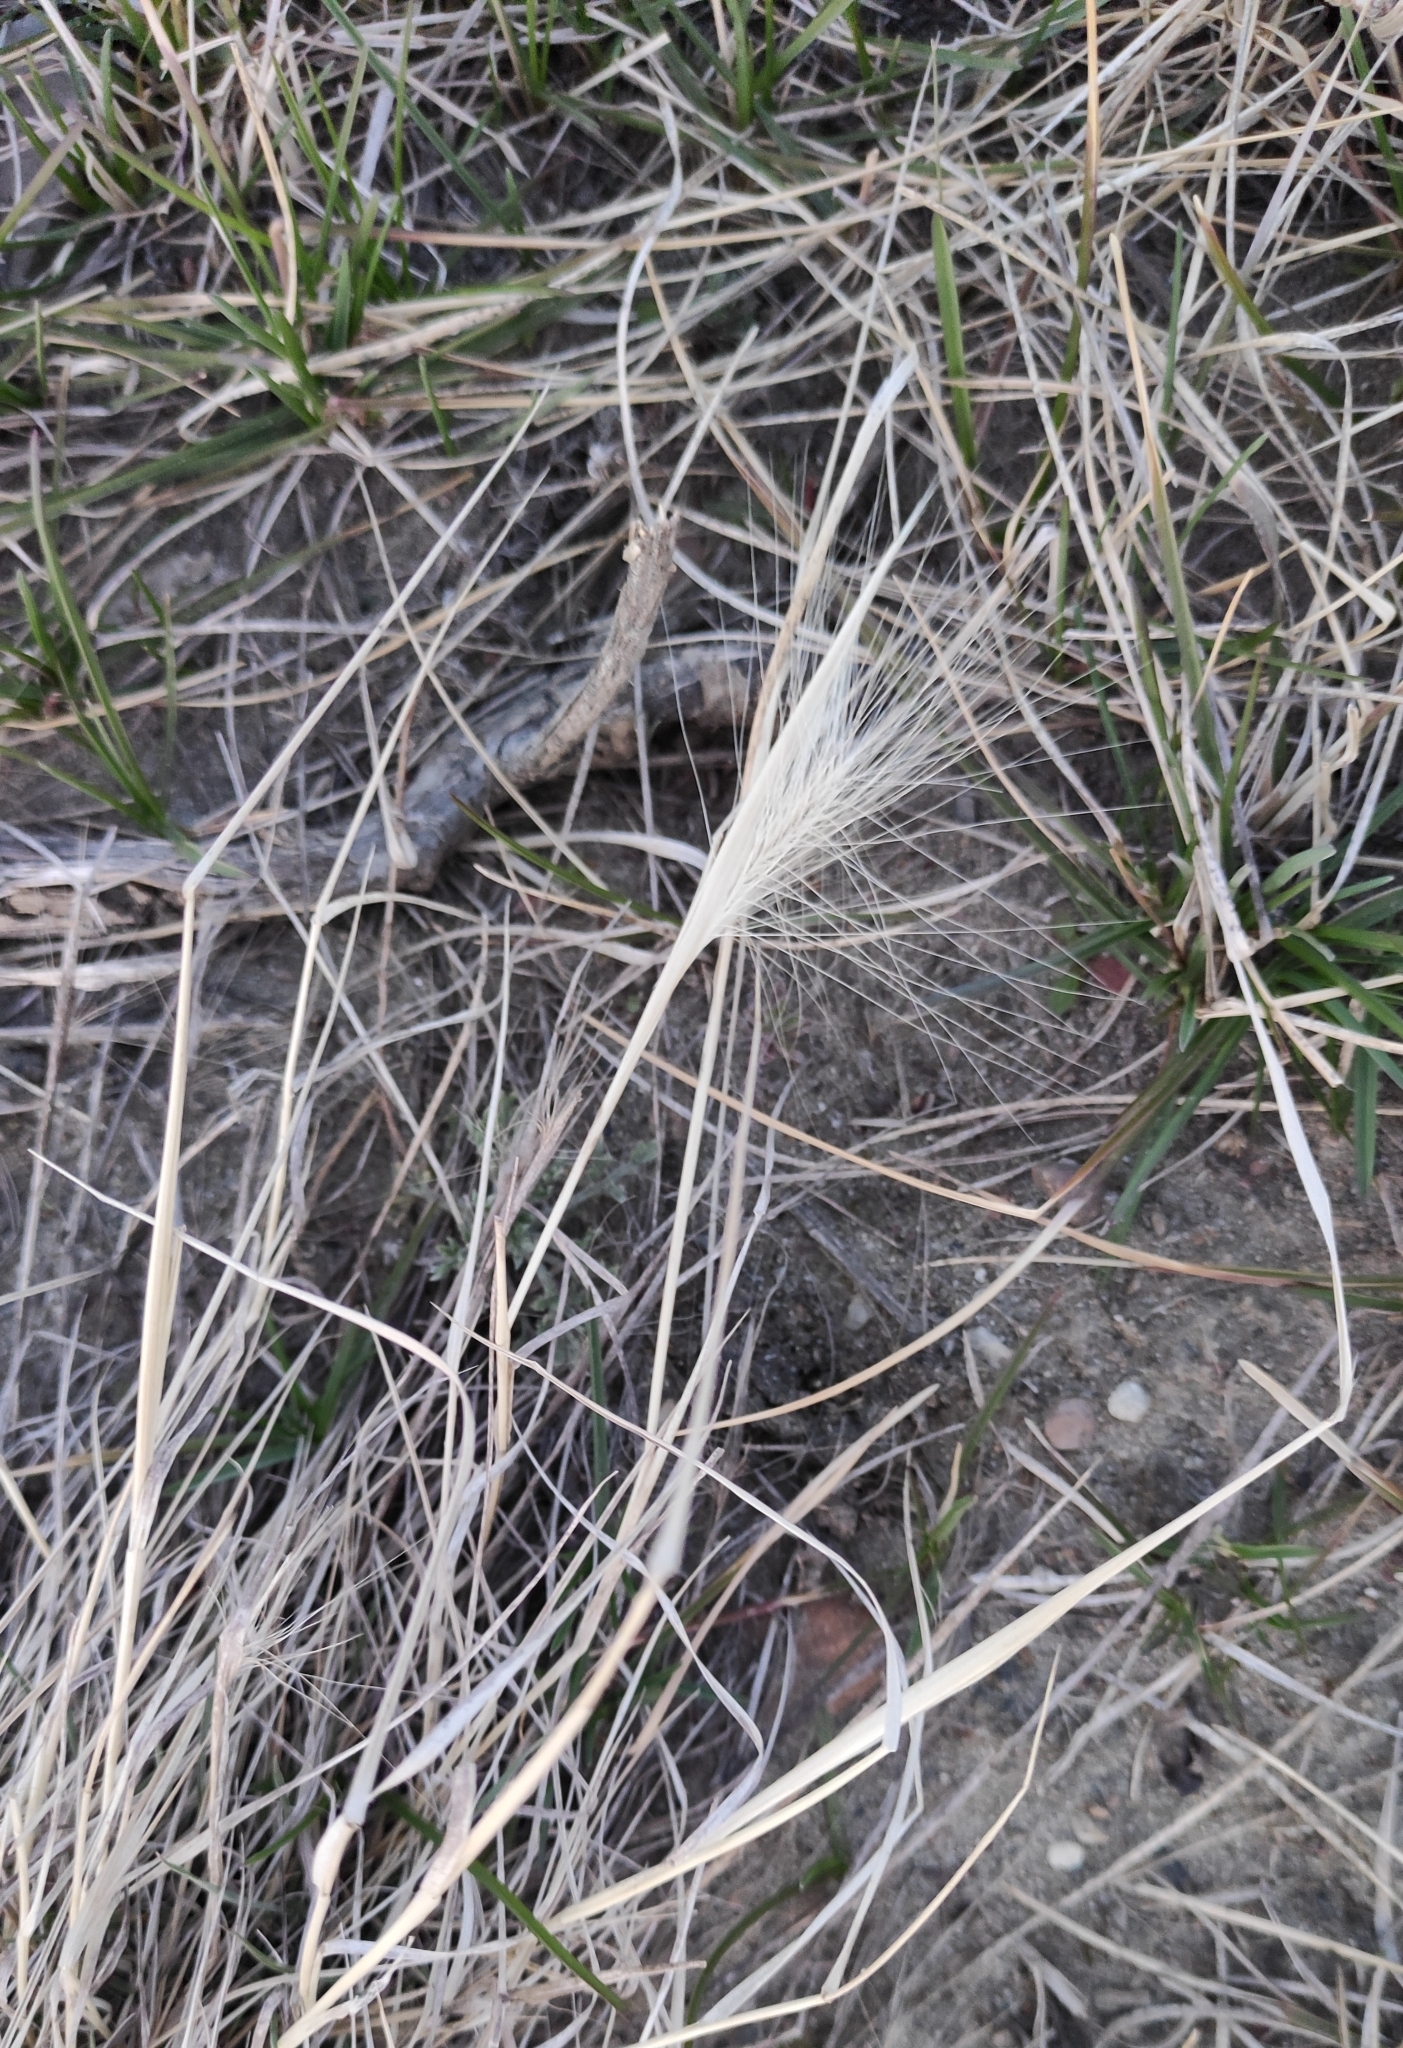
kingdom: Plantae
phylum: Tracheophyta
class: Liliopsida
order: Poales
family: Poaceae
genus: Hordeum
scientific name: Hordeum jubatum
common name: Foxtail barley
